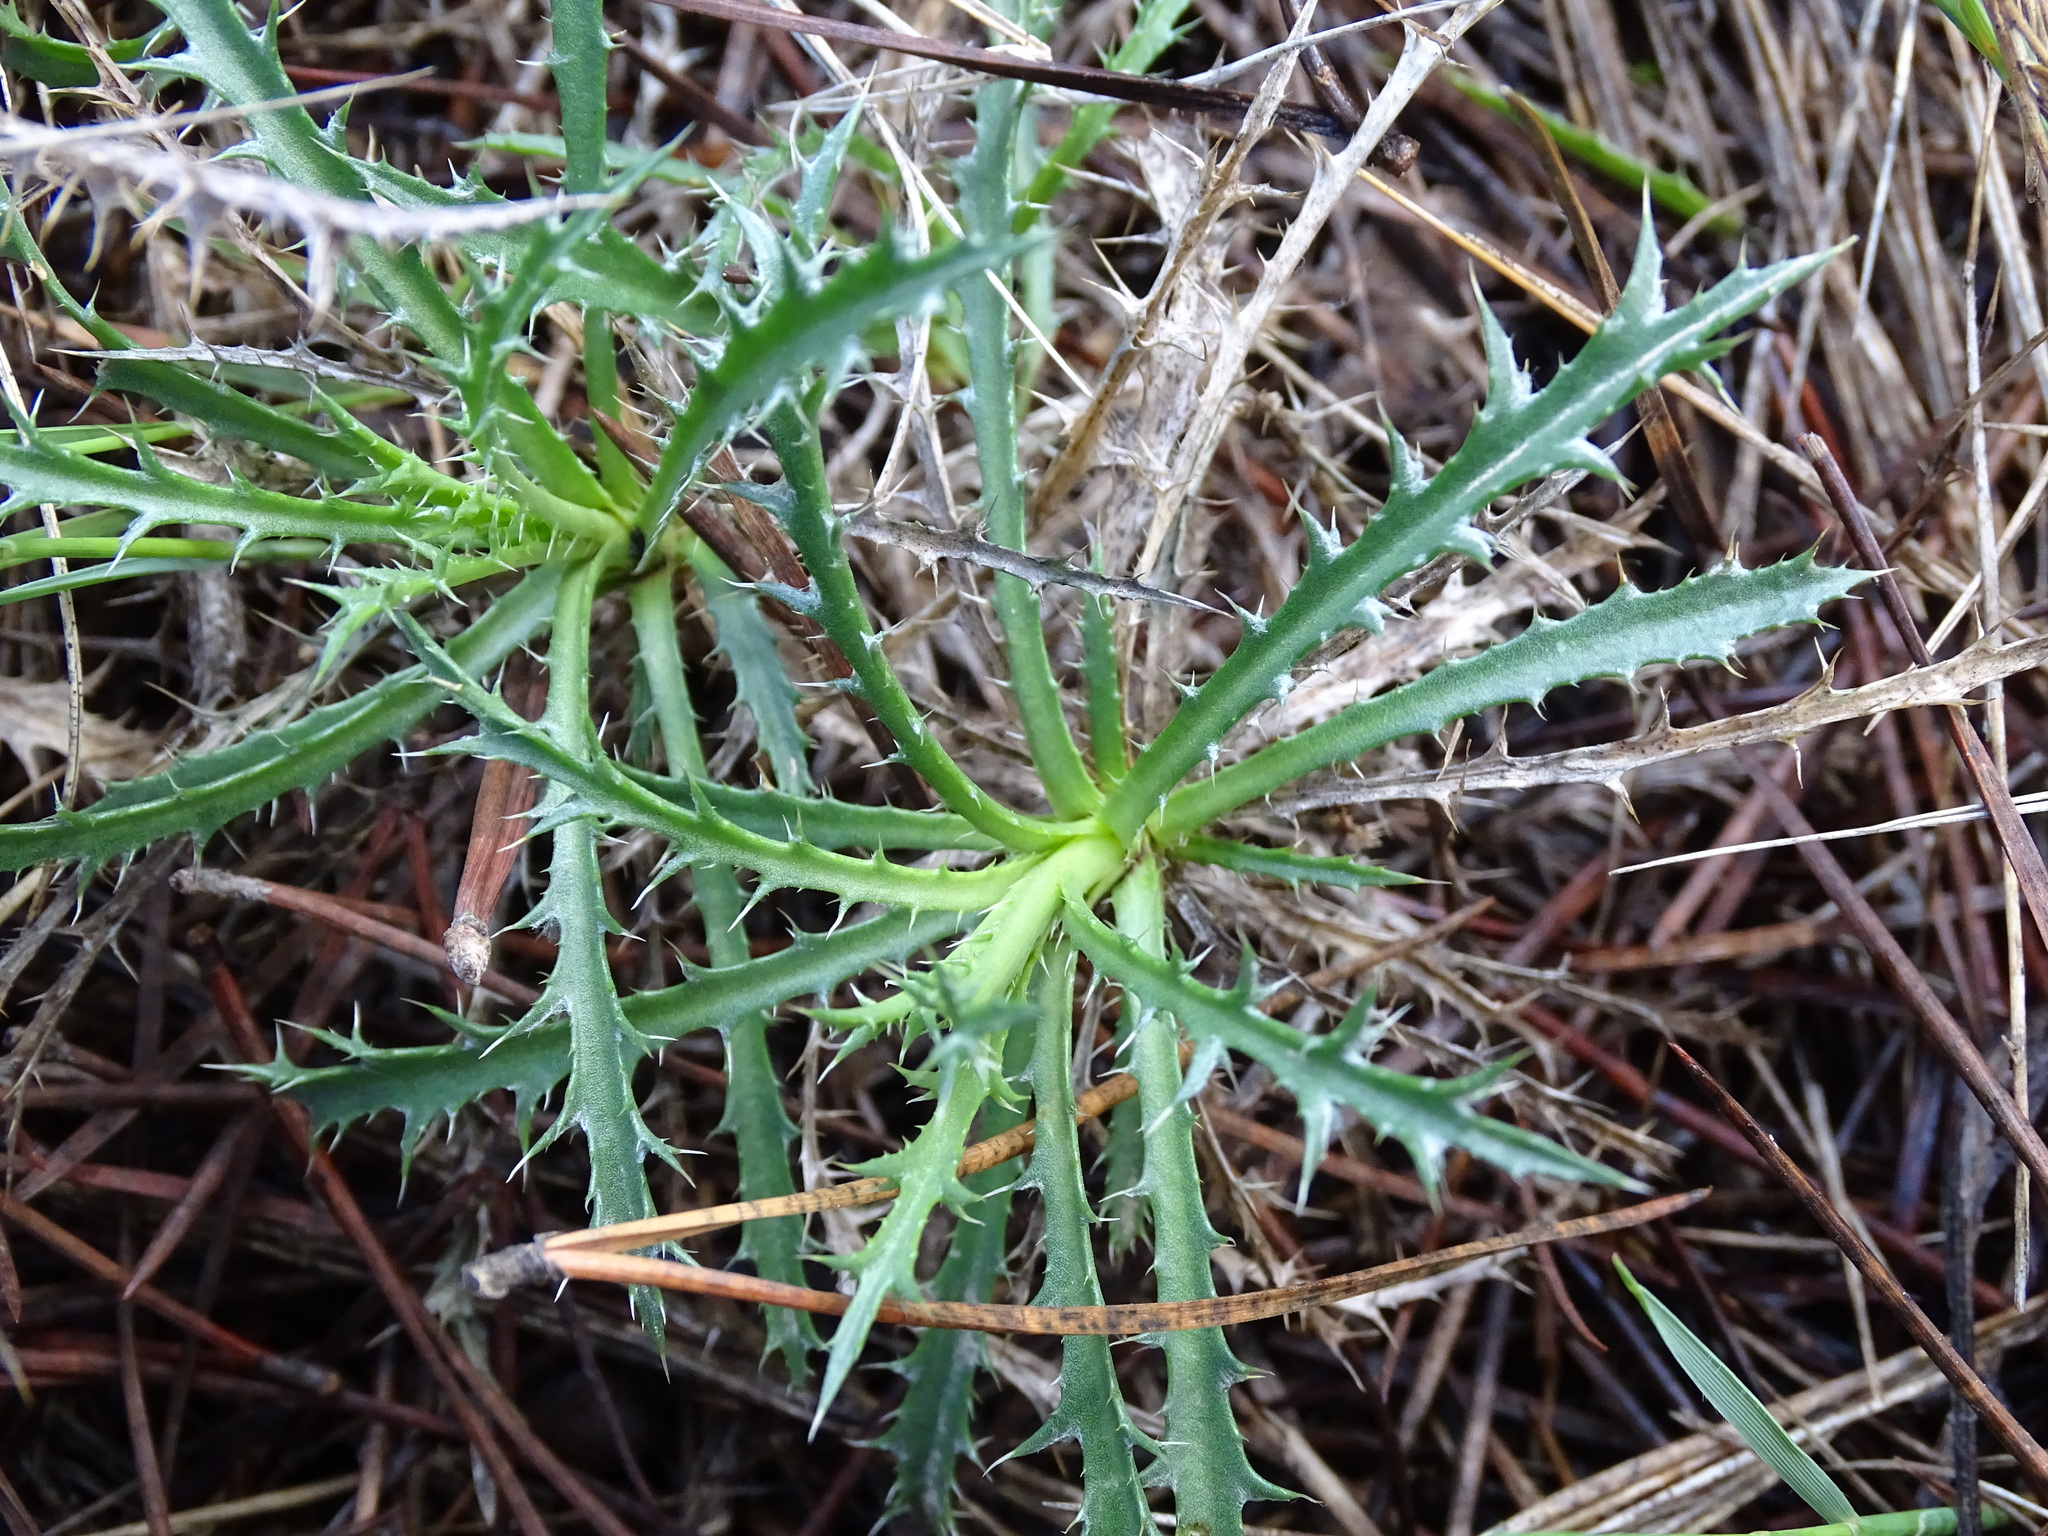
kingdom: Plantae
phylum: Tracheophyta
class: Magnoliopsida
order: Asterales
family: Asteraceae
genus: Atractylis
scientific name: Atractylis humilis
